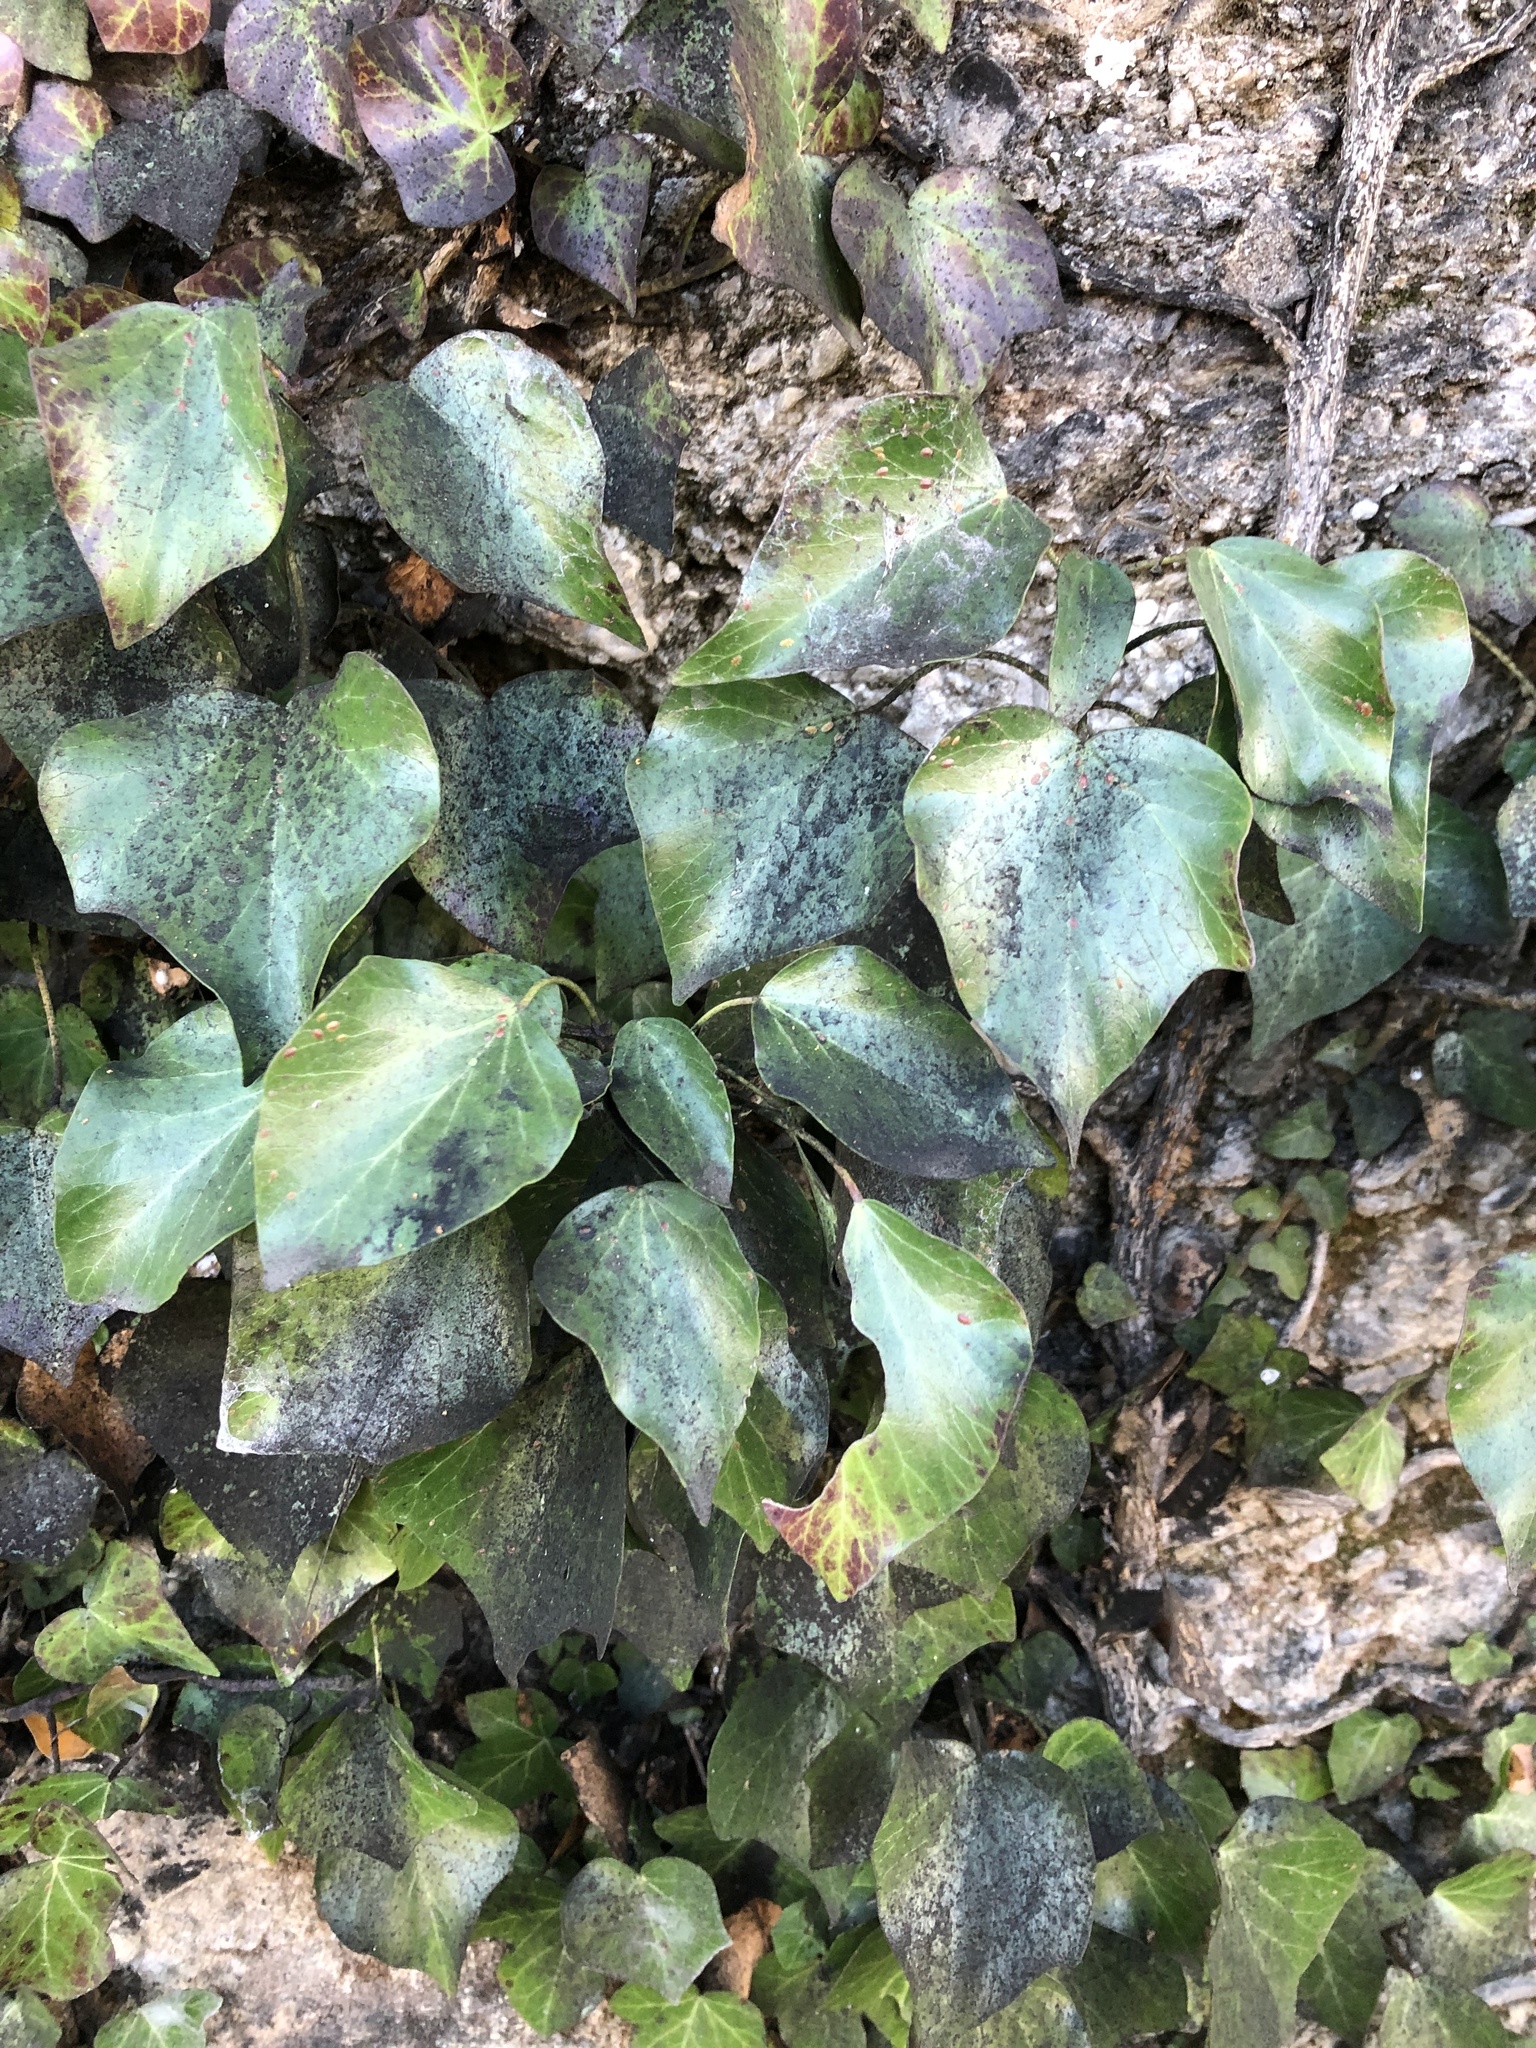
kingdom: Plantae
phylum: Tracheophyta
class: Magnoliopsida
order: Apiales
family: Araliaceae
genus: Hedera
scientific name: Hedera helix
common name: Ivy
